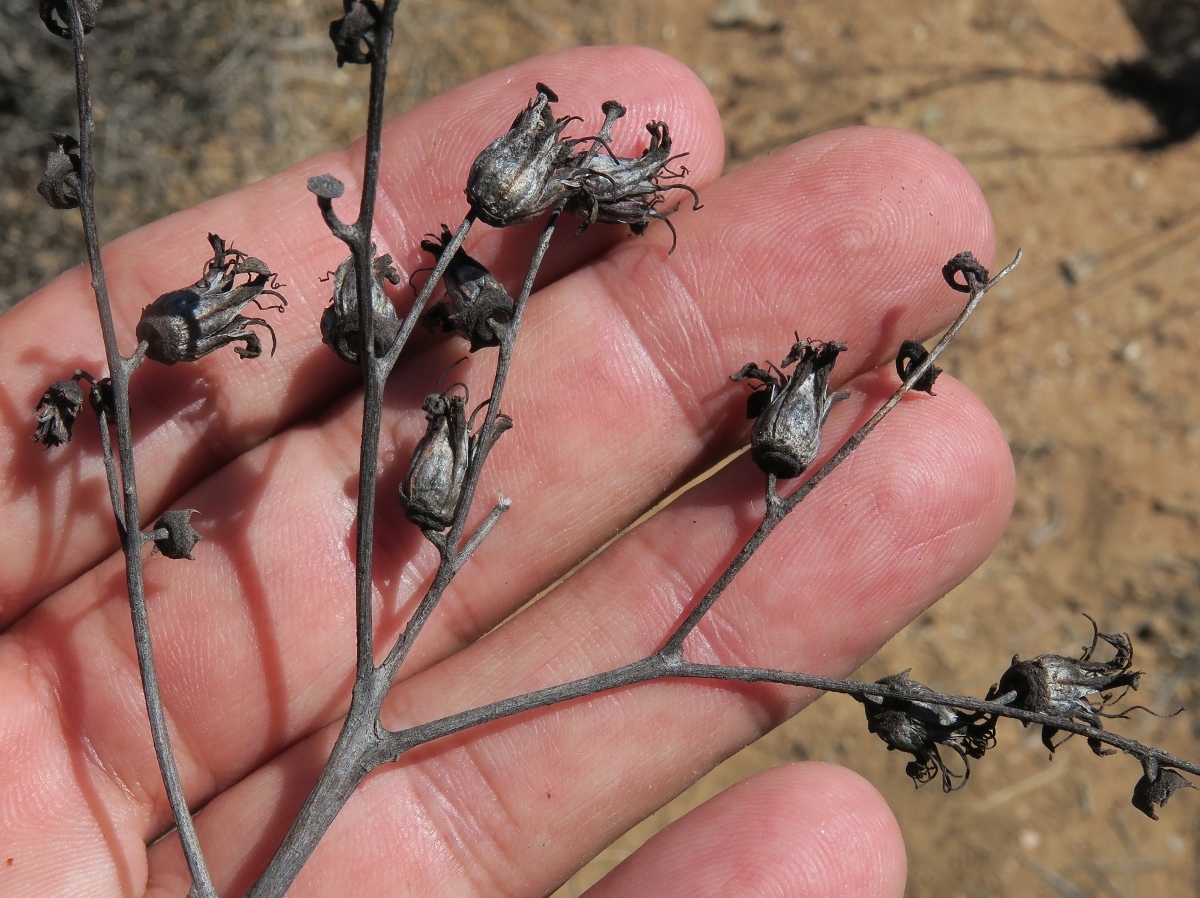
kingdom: Plantae
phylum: Tracheophyta
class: Magnoliopsida
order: Saxifragales
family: Crassulaceae
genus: Tylecodon
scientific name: Tylecodon wallichii
